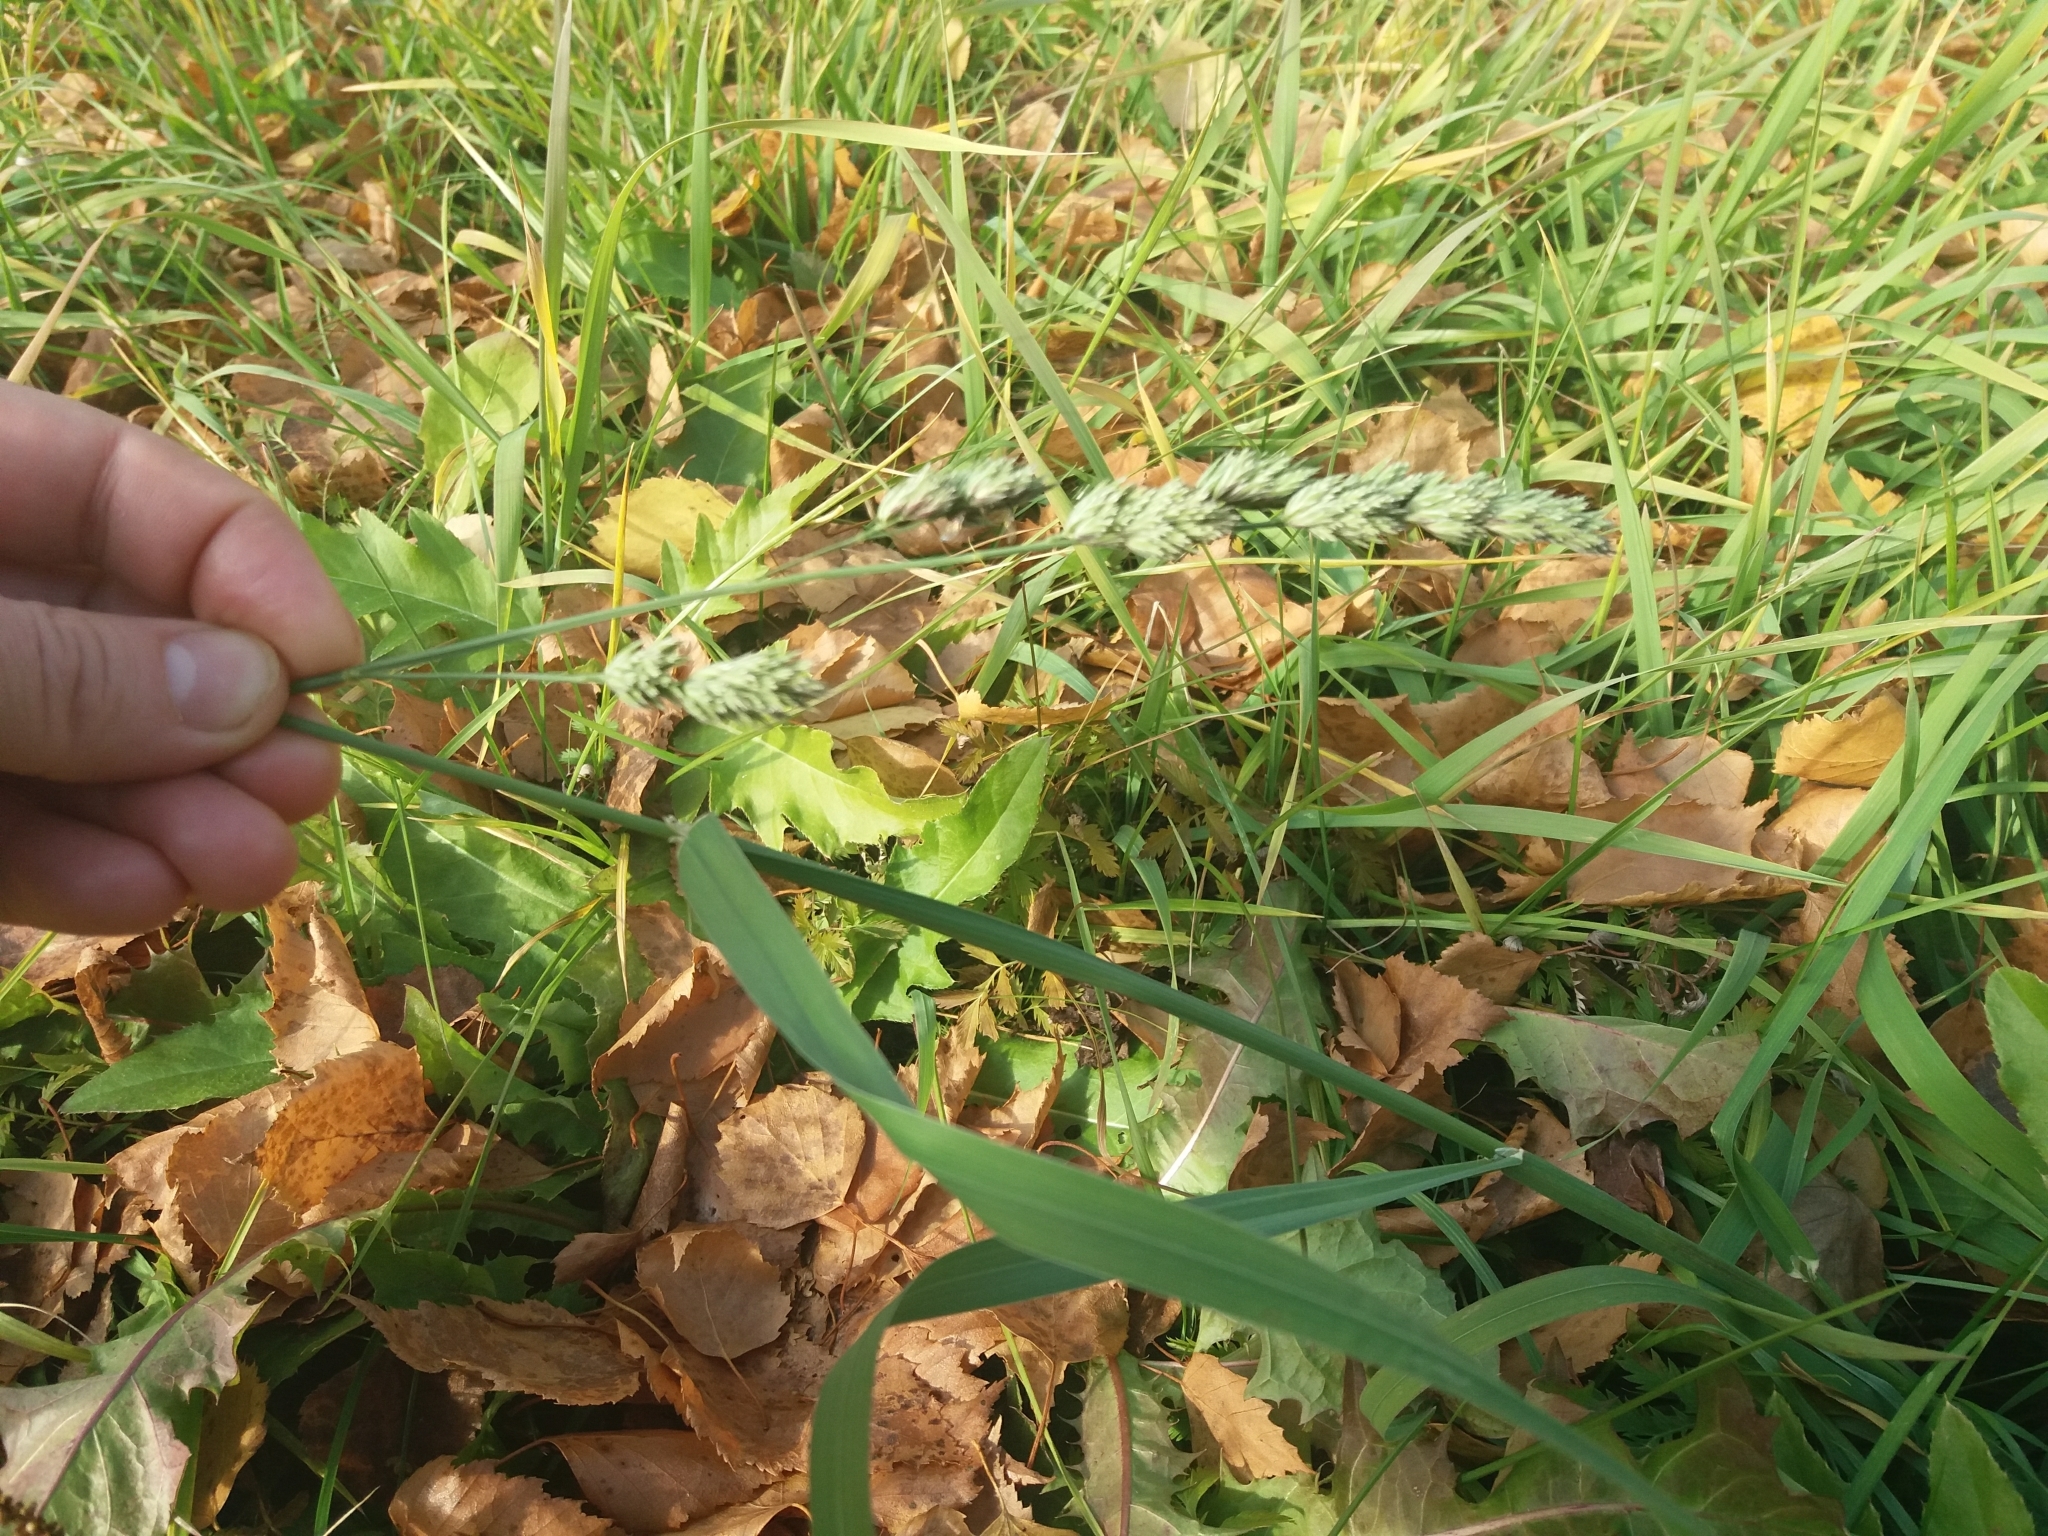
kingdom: Plantae
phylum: Tracheophyta
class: Liliopsida
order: Poales
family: Poaceae
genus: Dactylis
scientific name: Dactylis glomerata
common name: Orchardgrass
